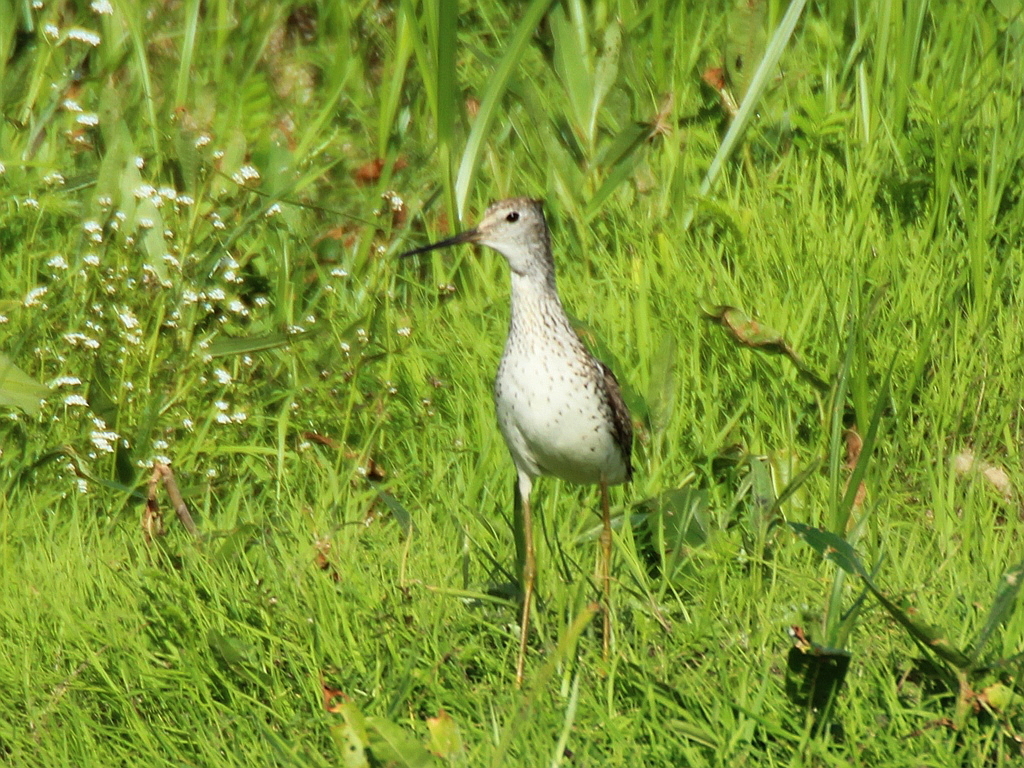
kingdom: Animalia
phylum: Chordata
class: Aves
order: Charadriiformes
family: Scolopacidae
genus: Tringa
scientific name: Tringa stagnatilis
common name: Marsh sandpiper
